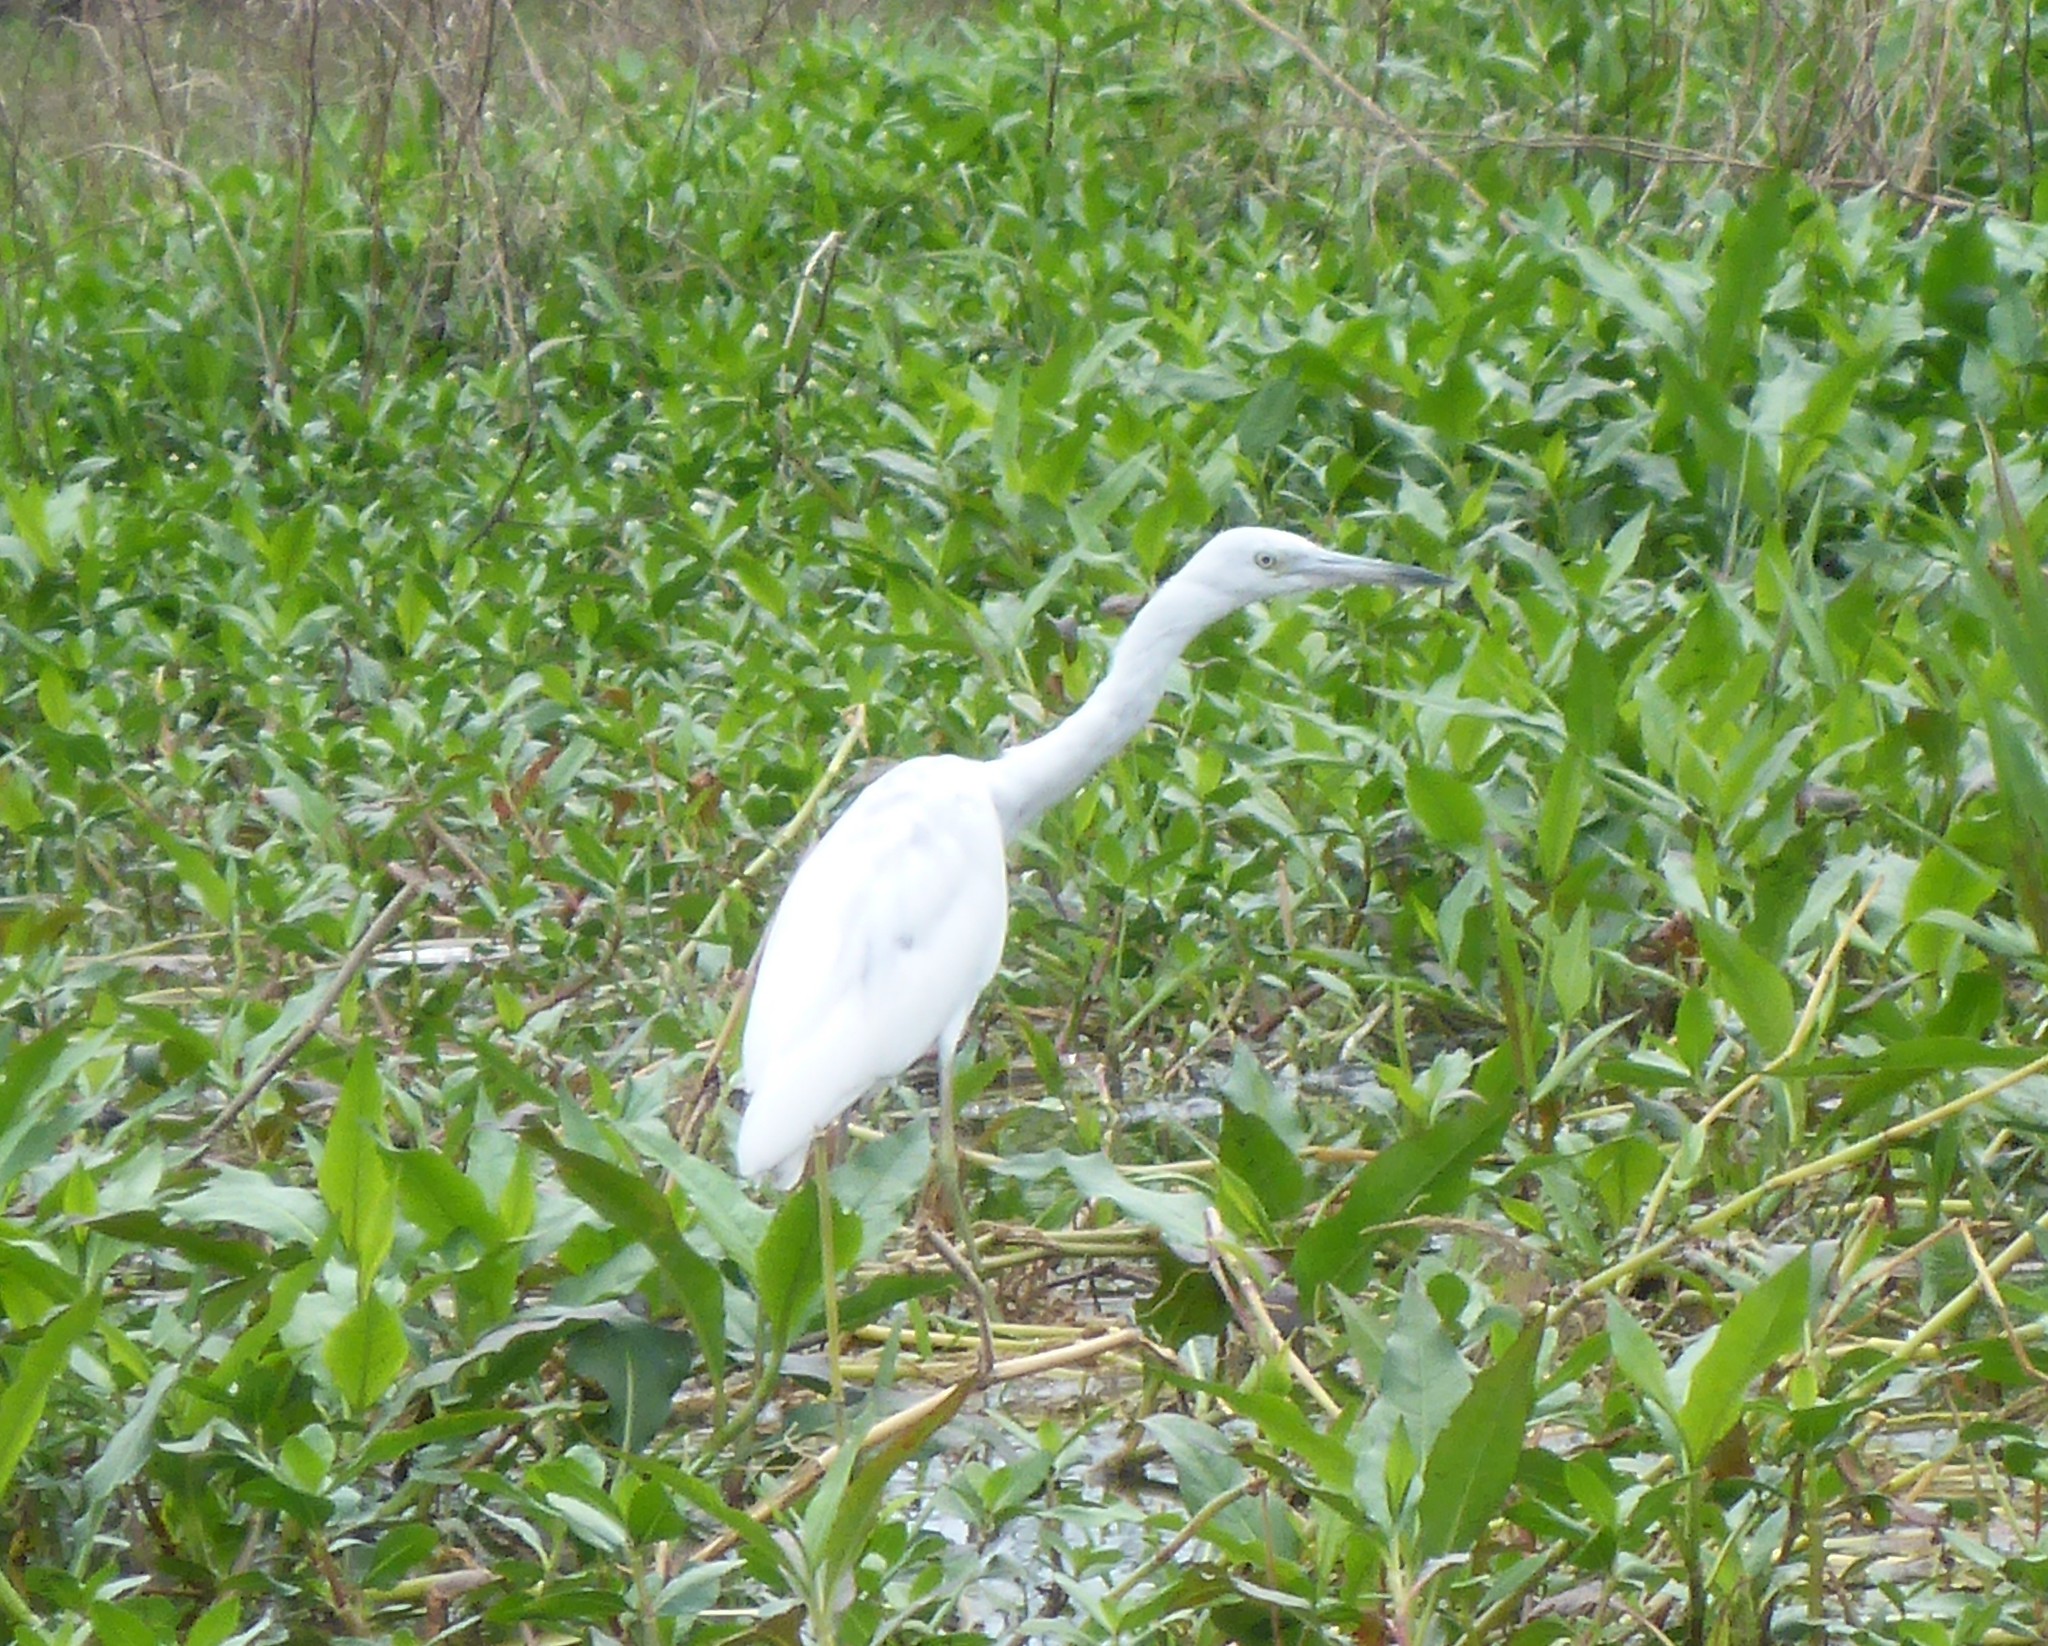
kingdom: Animalia
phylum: Chordata
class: Aves
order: Pelecaniformes
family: Ardeidae
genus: Egretta
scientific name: Egretta caerulea
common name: Little blue heron
